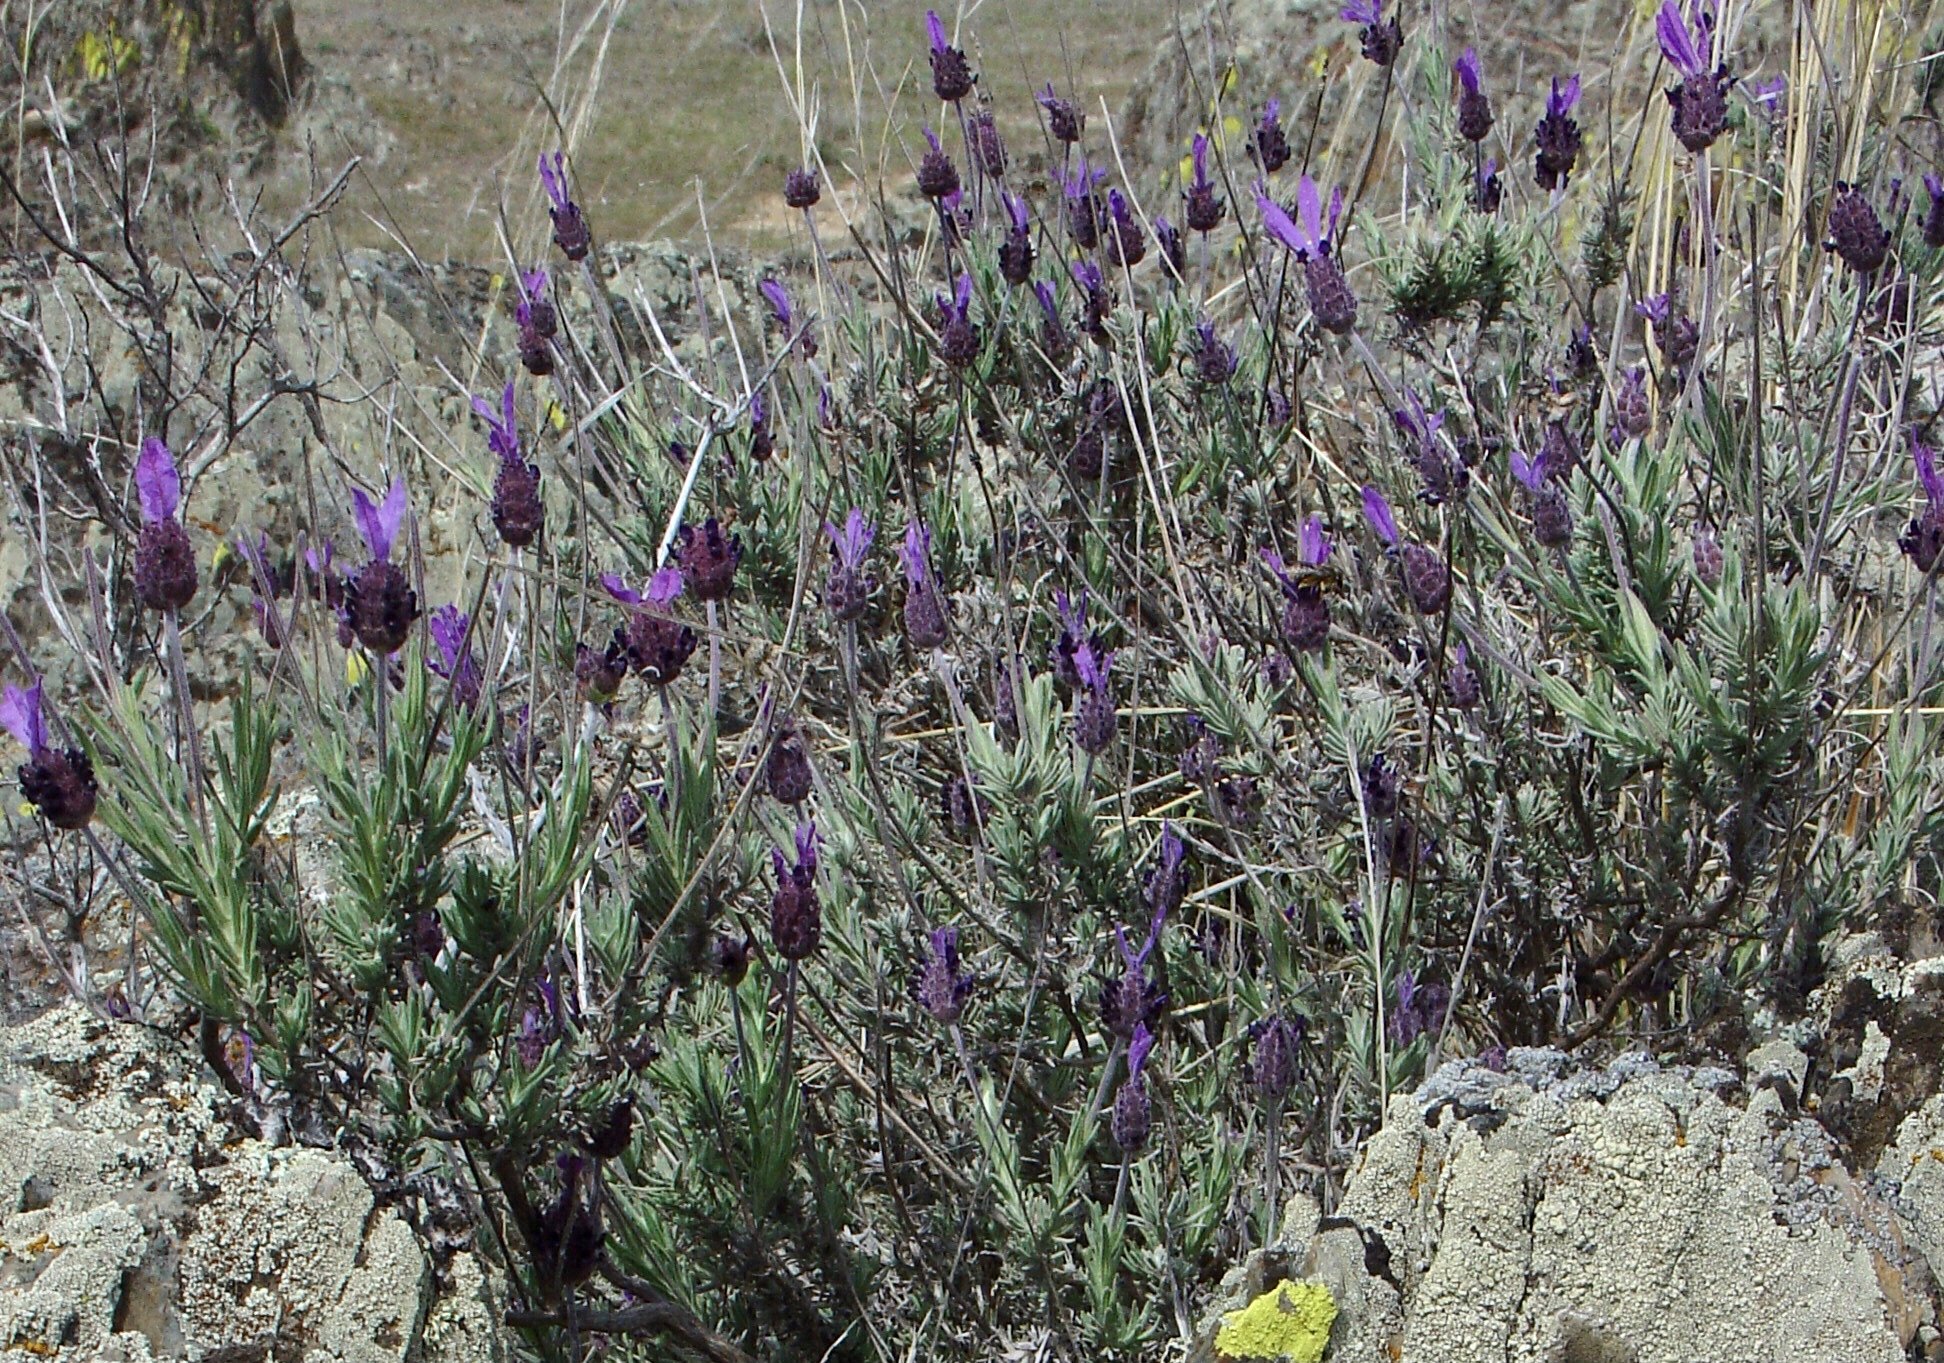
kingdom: Plantae
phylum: Tracheophyta
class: Magnoliopsida
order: Lamiales
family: Lamiaceae
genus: Lavandula
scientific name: Lavandula pedunculata
